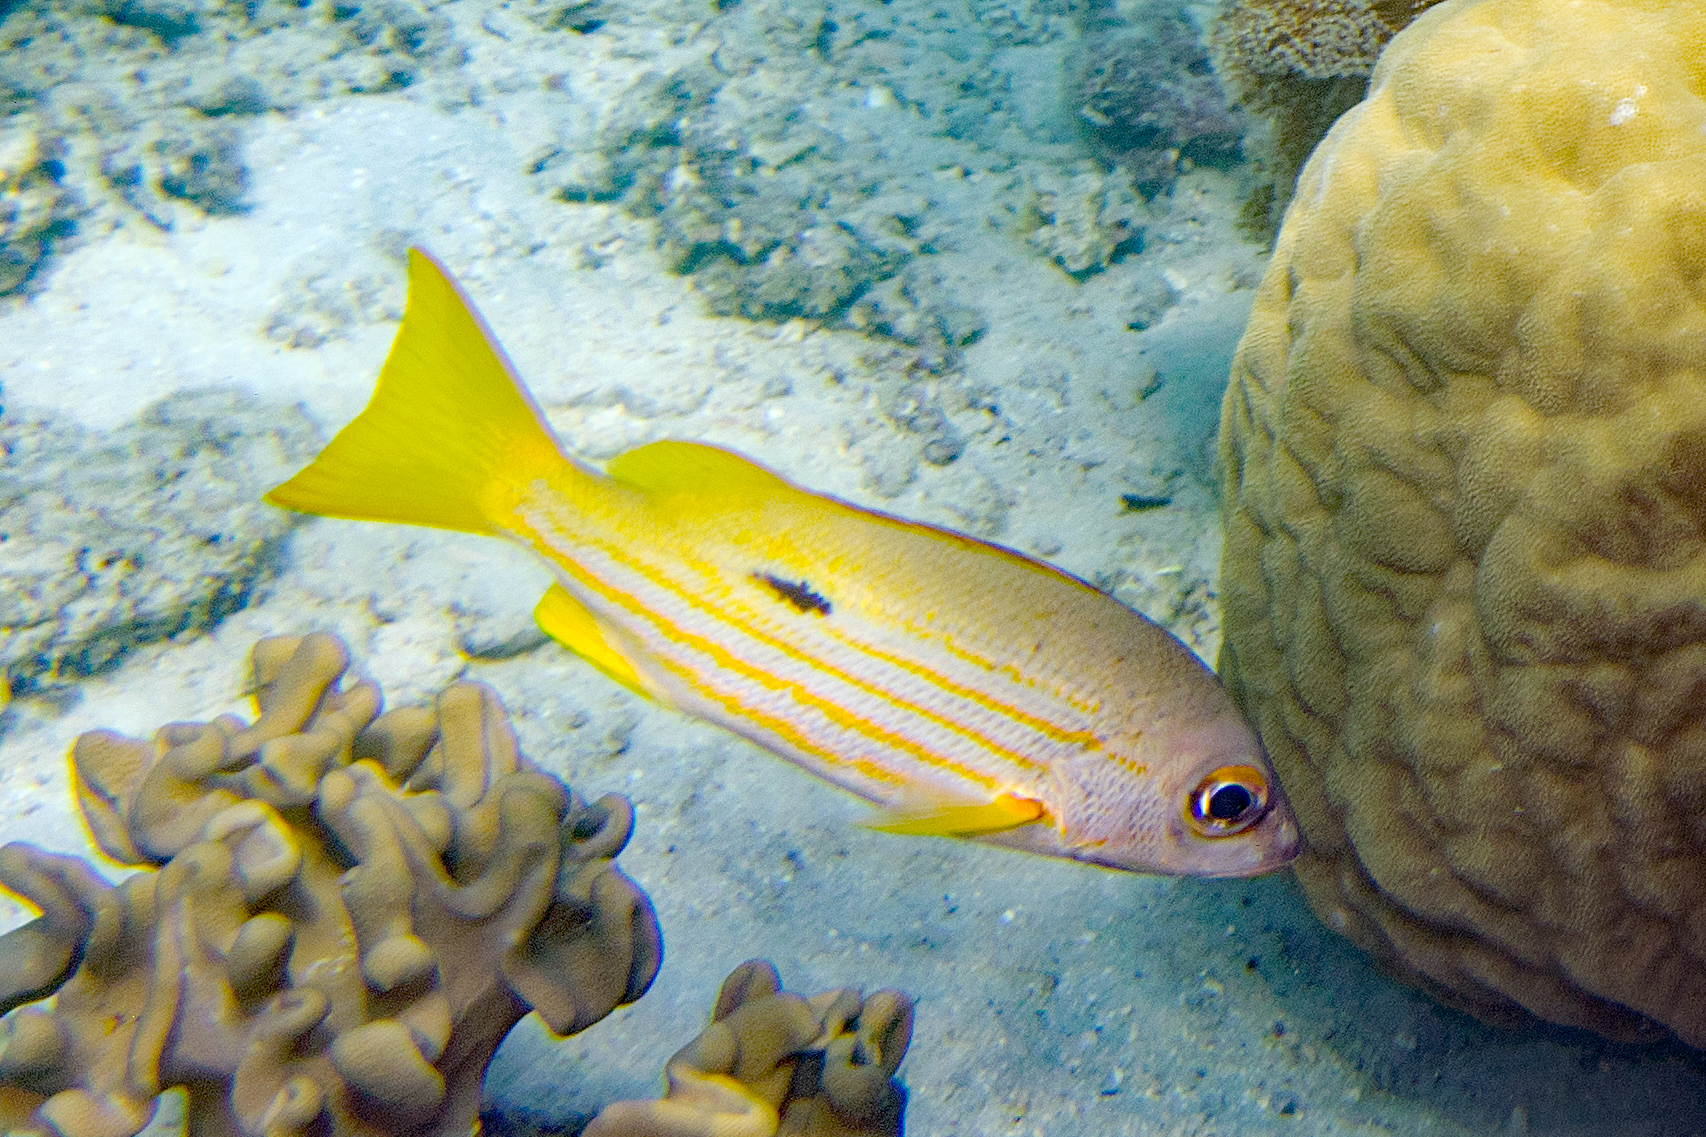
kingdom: Animalia
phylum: Chordata
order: Perciformes
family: Lutjanidae
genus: Lutjanus
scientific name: Lutjanus fulviflamma
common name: Blackspot snapper
